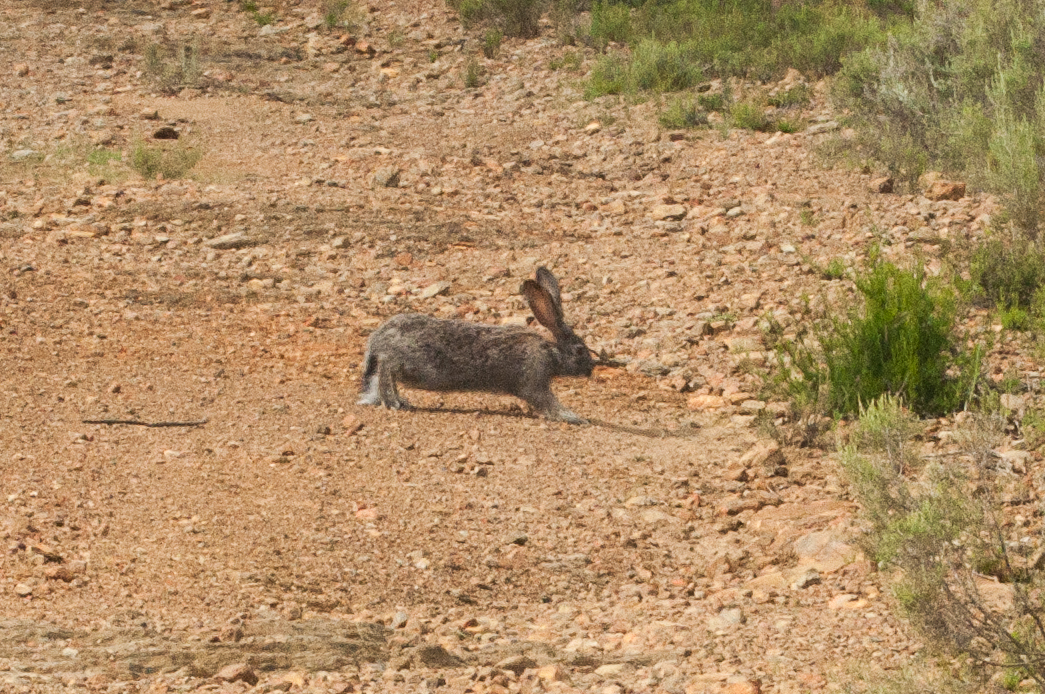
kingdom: Animalia
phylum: Chordata
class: Mammalia
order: Lagomorpha
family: Leporidae
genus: Lepus
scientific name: Lepus capensis
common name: Cape hare
